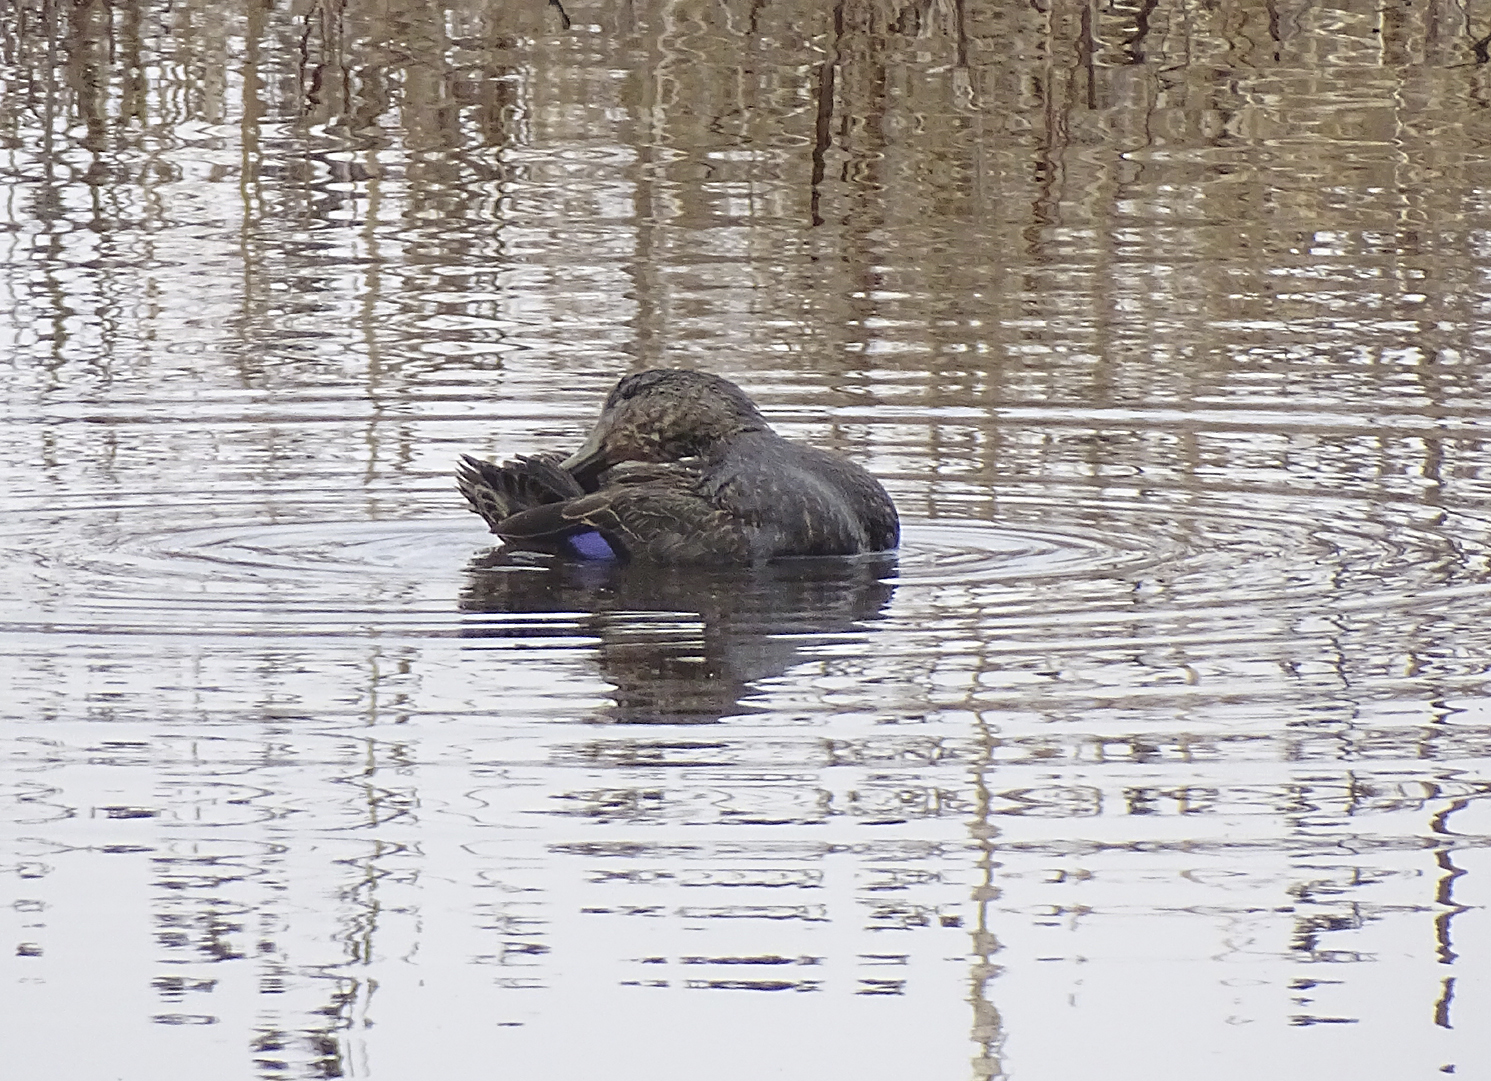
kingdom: Animalia
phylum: Chordata
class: Aves
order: Anseriformes
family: Anatidae
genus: Anas
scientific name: Anas rubripes
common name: American black duck
